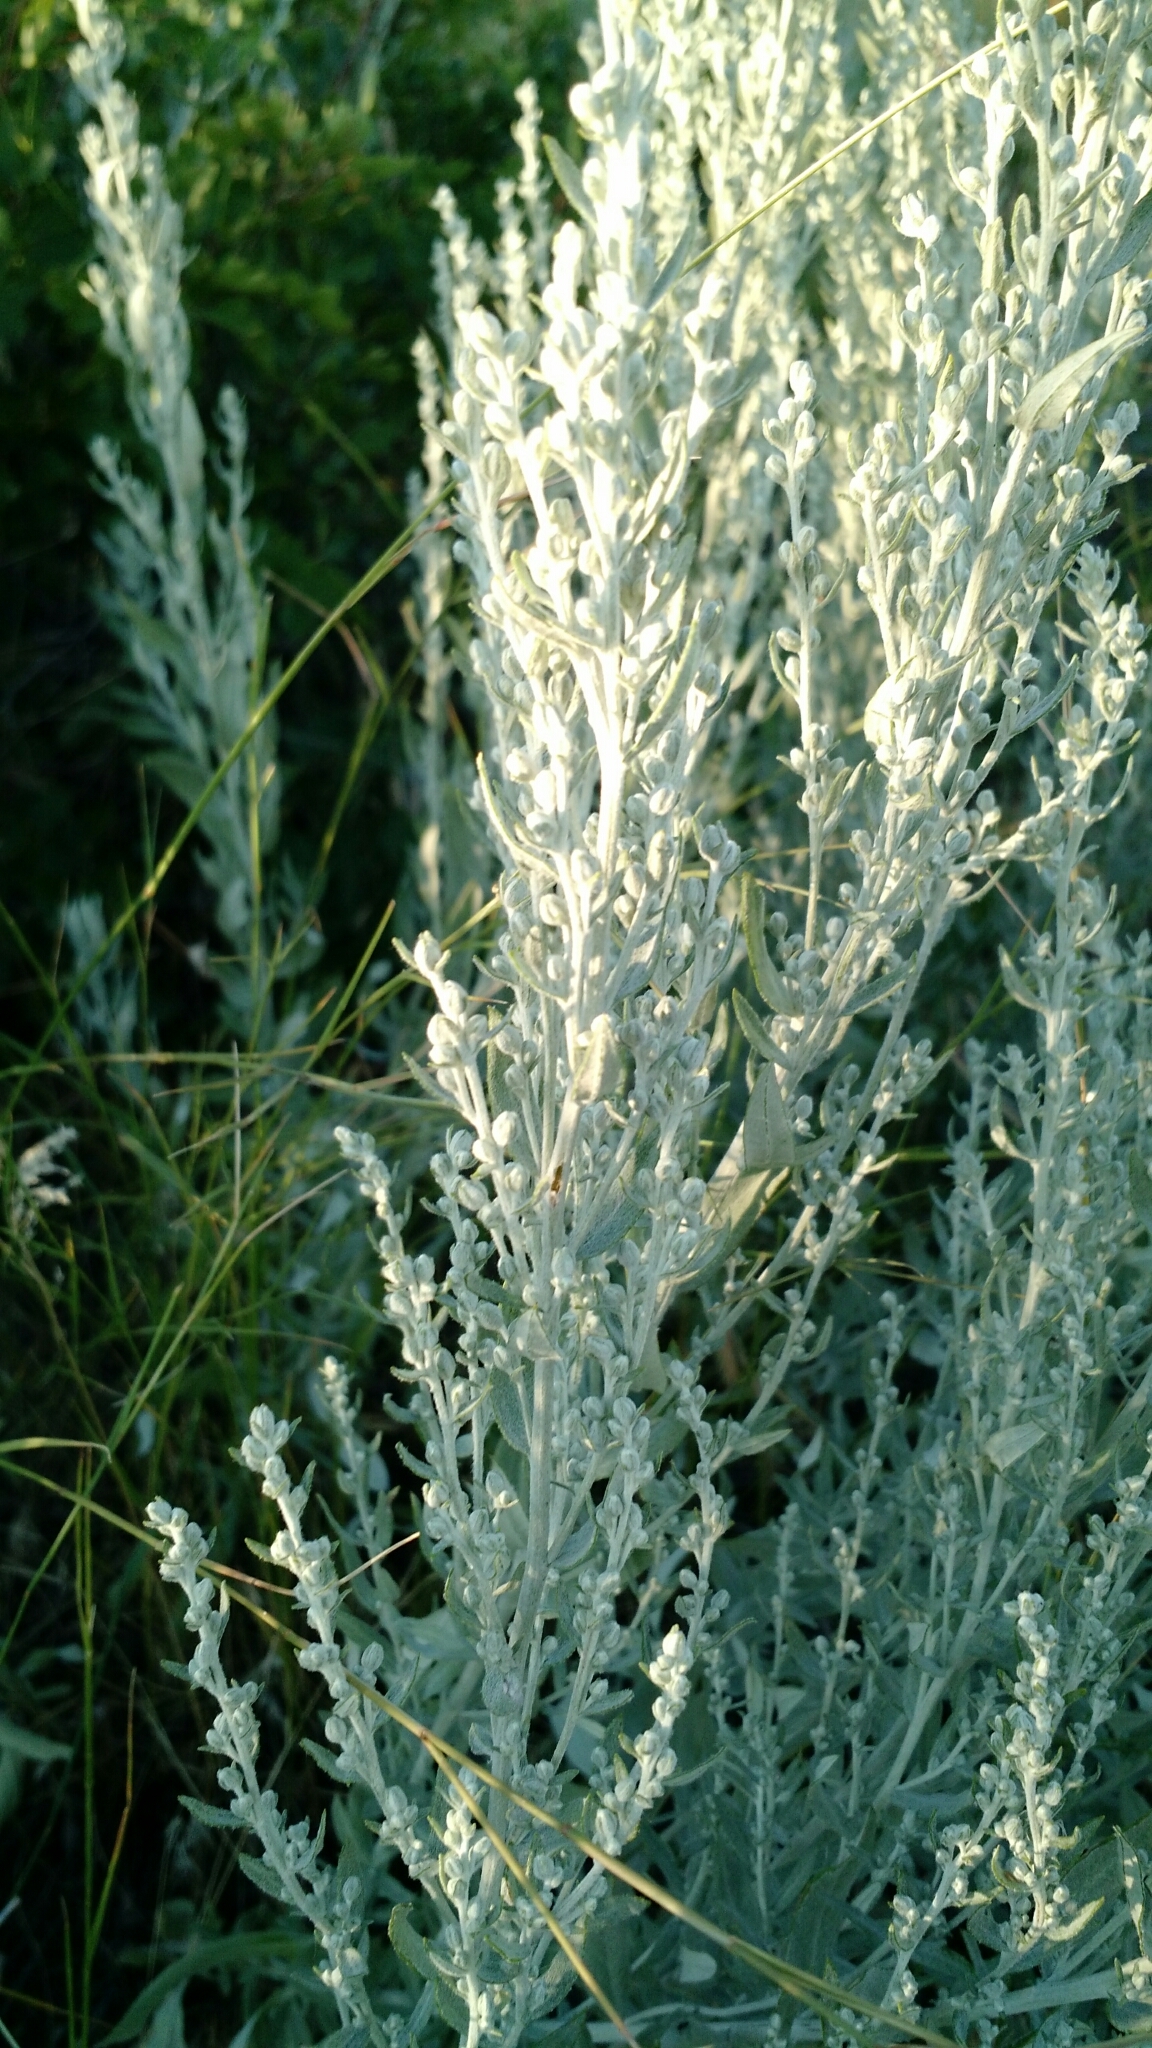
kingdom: Plantae
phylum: Tracheophyta
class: Magnoliopsida
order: Asterales
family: Asteraceae
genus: Artemisia
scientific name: Artemisia ludoviciana
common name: Western mugwort
